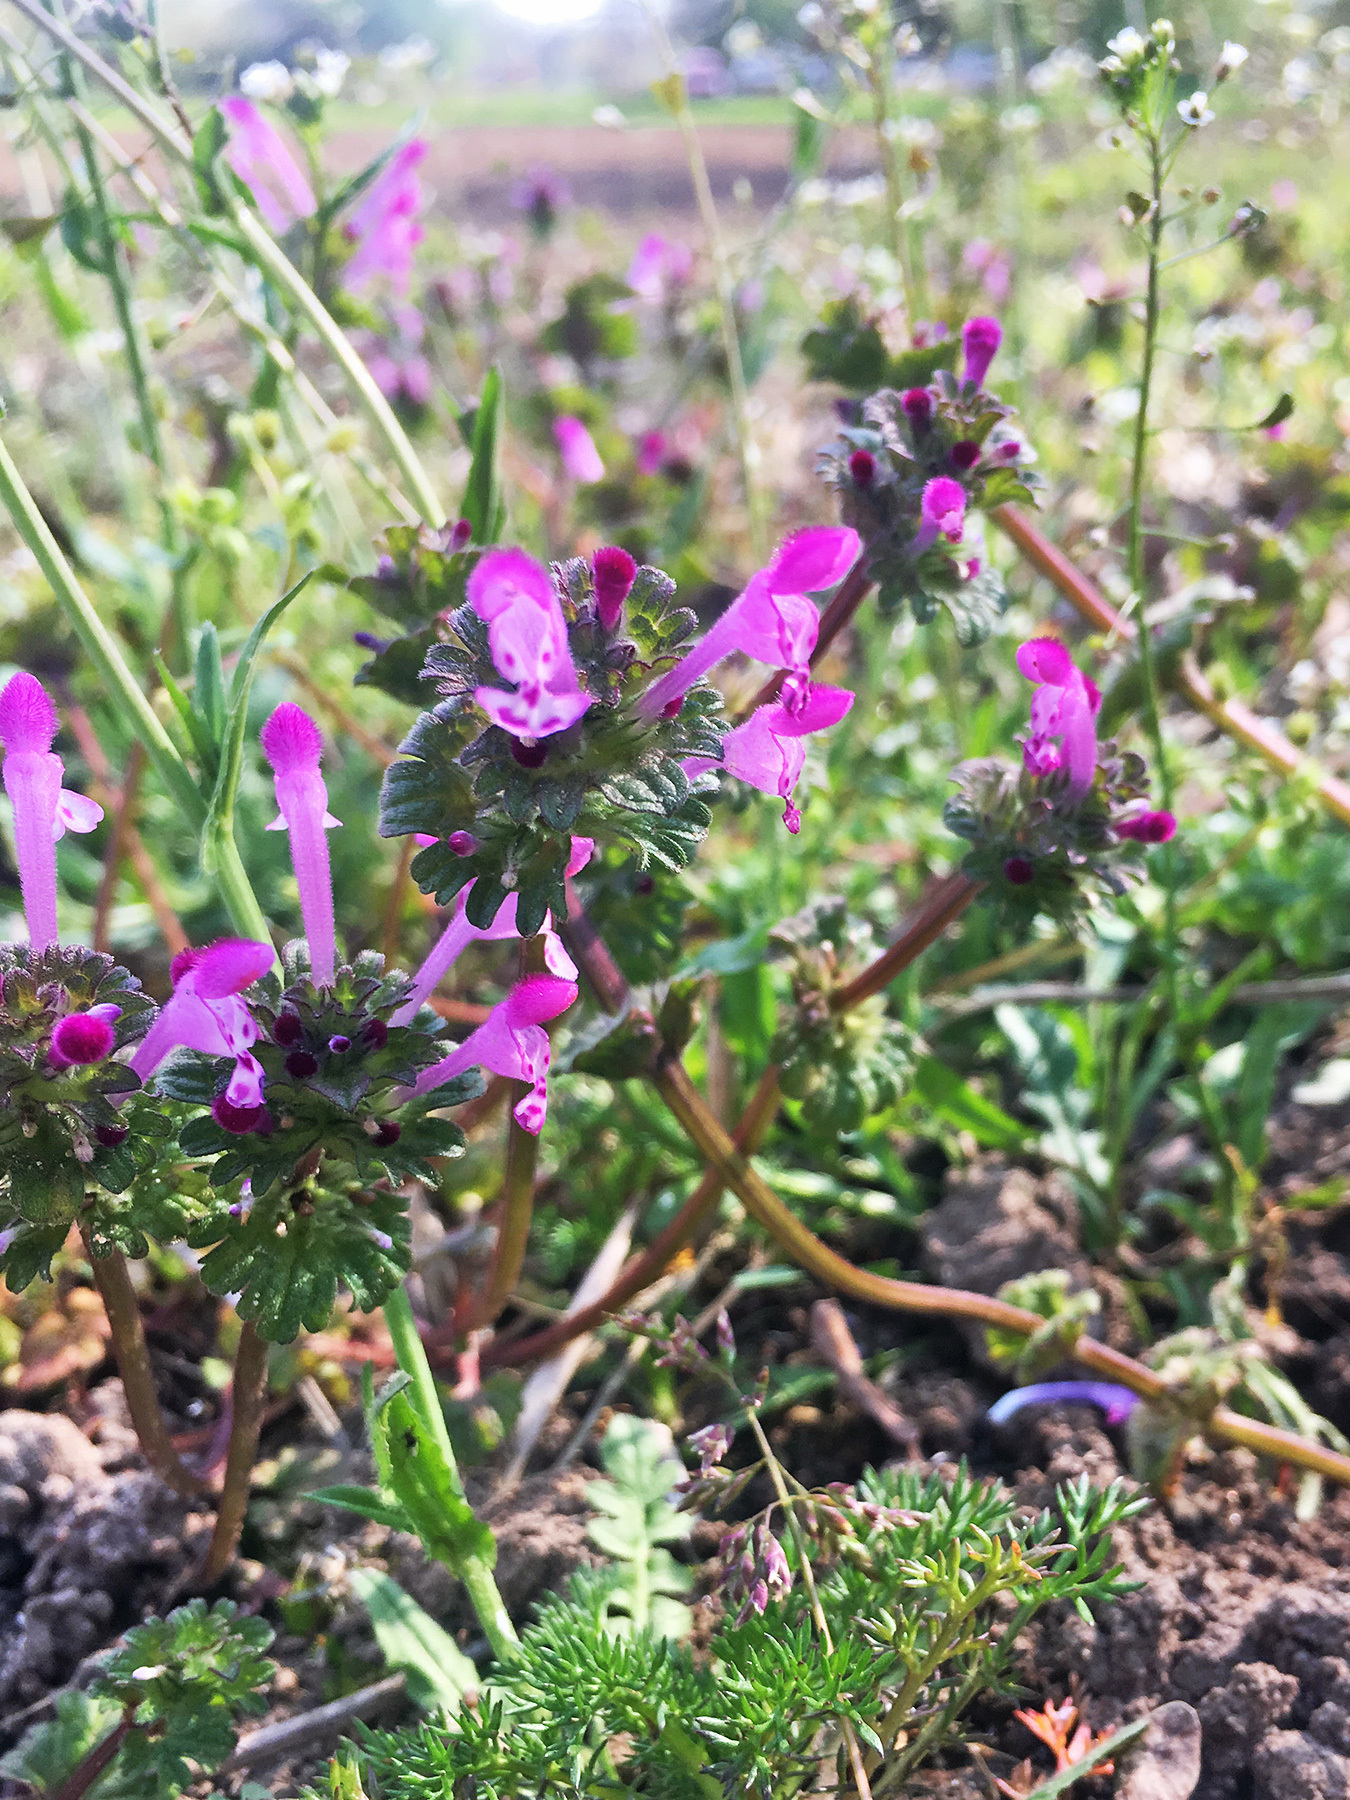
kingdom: Plantae
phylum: Tracheophyta
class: Magnoliopsida
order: Lamiales
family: Lamiaceae
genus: Lamium
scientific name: Lamium amplexicaule
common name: Henbit dead-nettle
